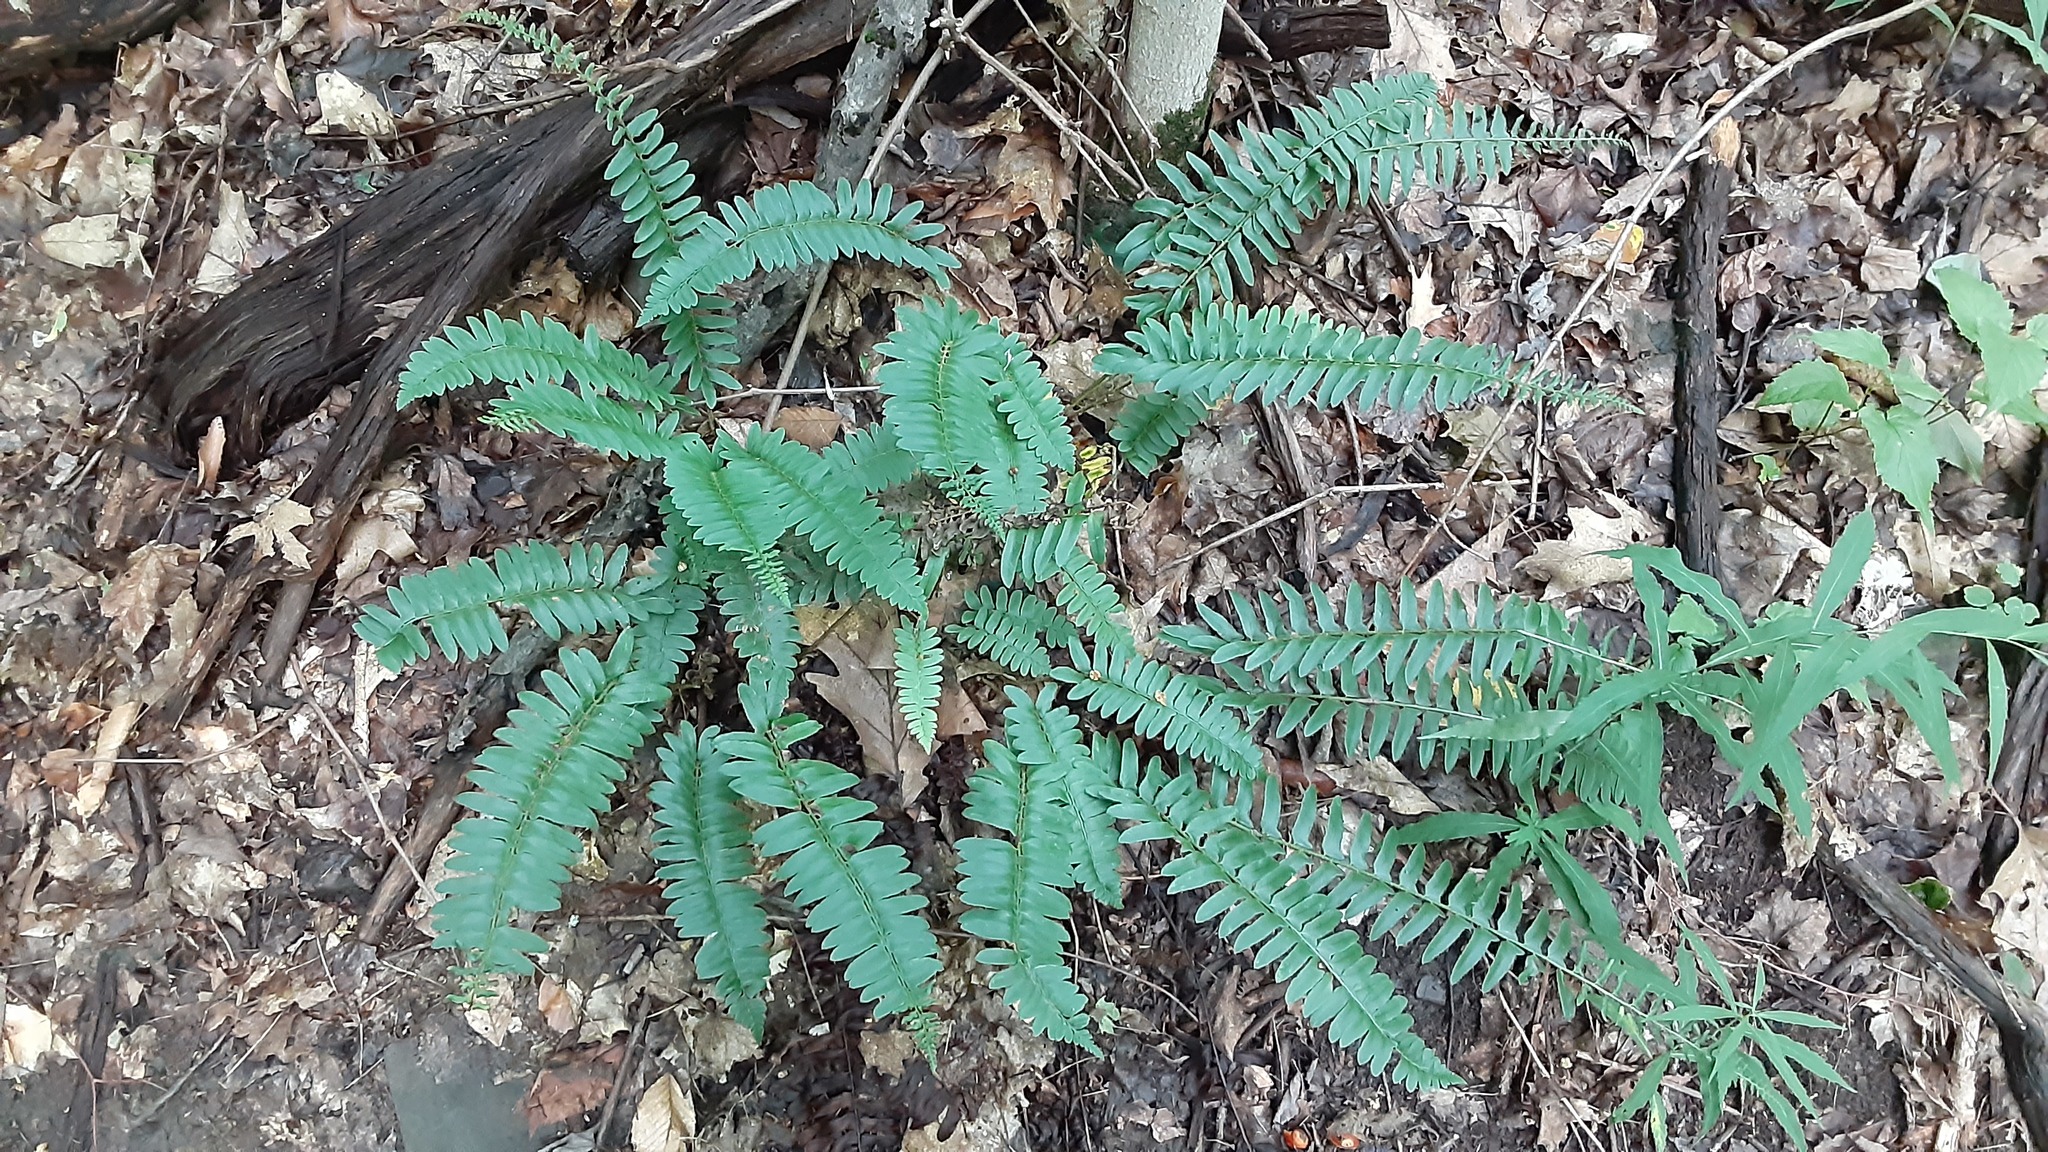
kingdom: Plantae
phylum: Tracheophyta
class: Polypodiopsida
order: Polypodiales
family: Dryopteridaceae
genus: Polystichum
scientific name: Polystichum acrostichoides
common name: Christmas fern
